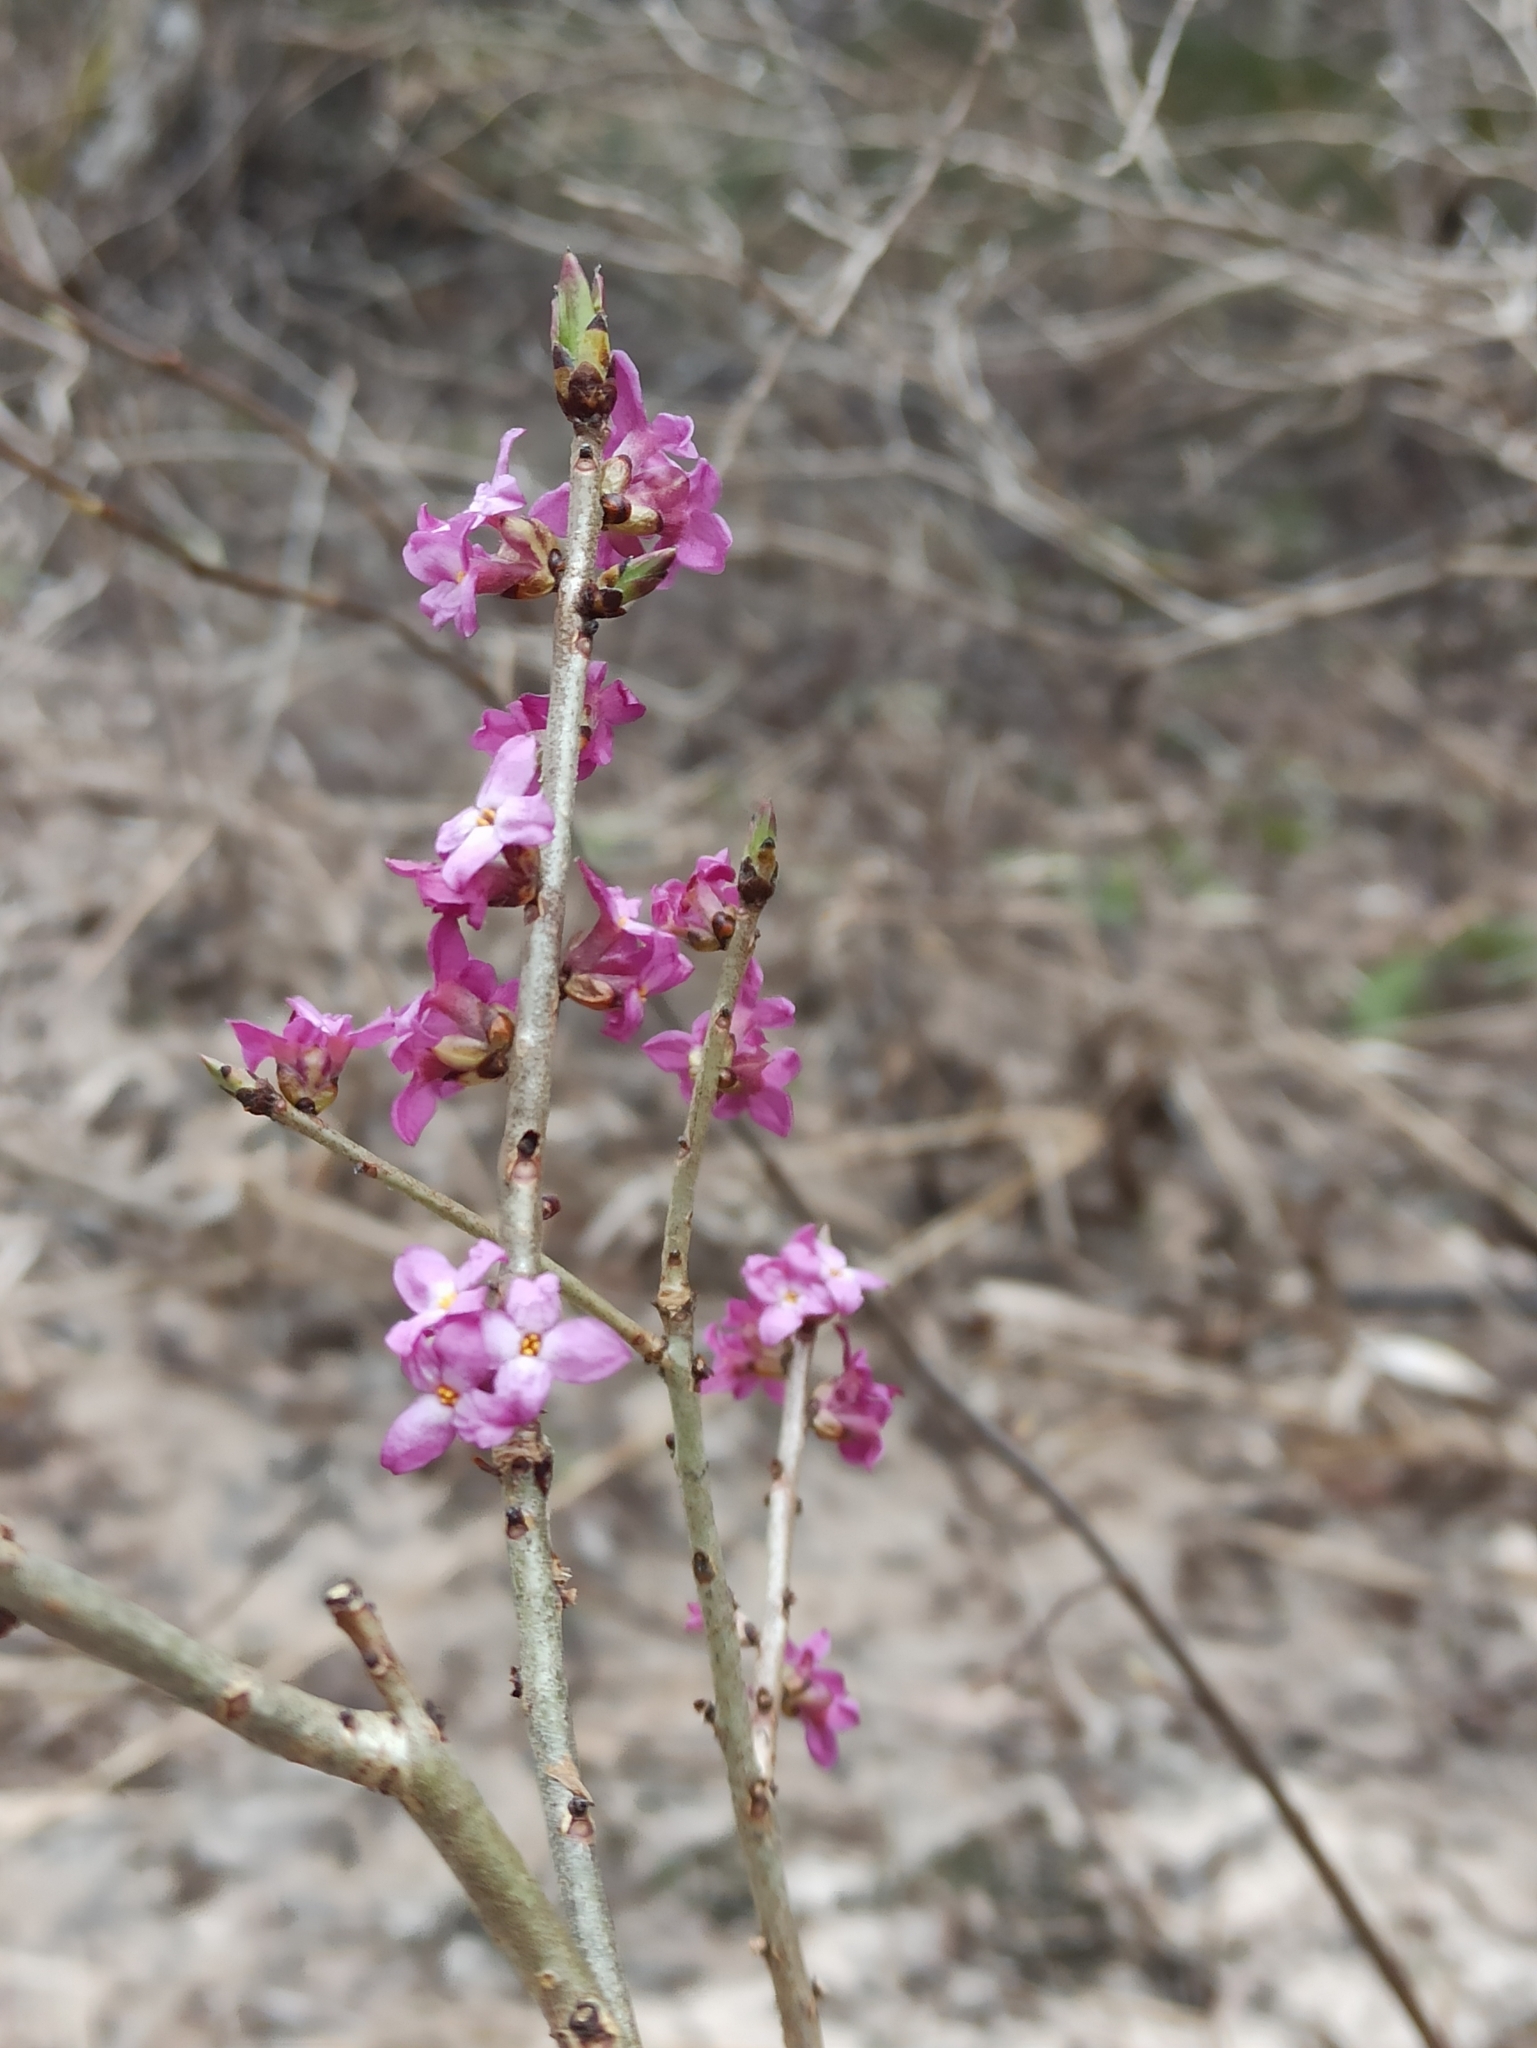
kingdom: Plantae
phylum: Tracheophyta
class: Magnoliopsida
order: Malvales
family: Thymelaeaceae
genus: Daphne
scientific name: Daphne mezereum
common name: Mezereon
